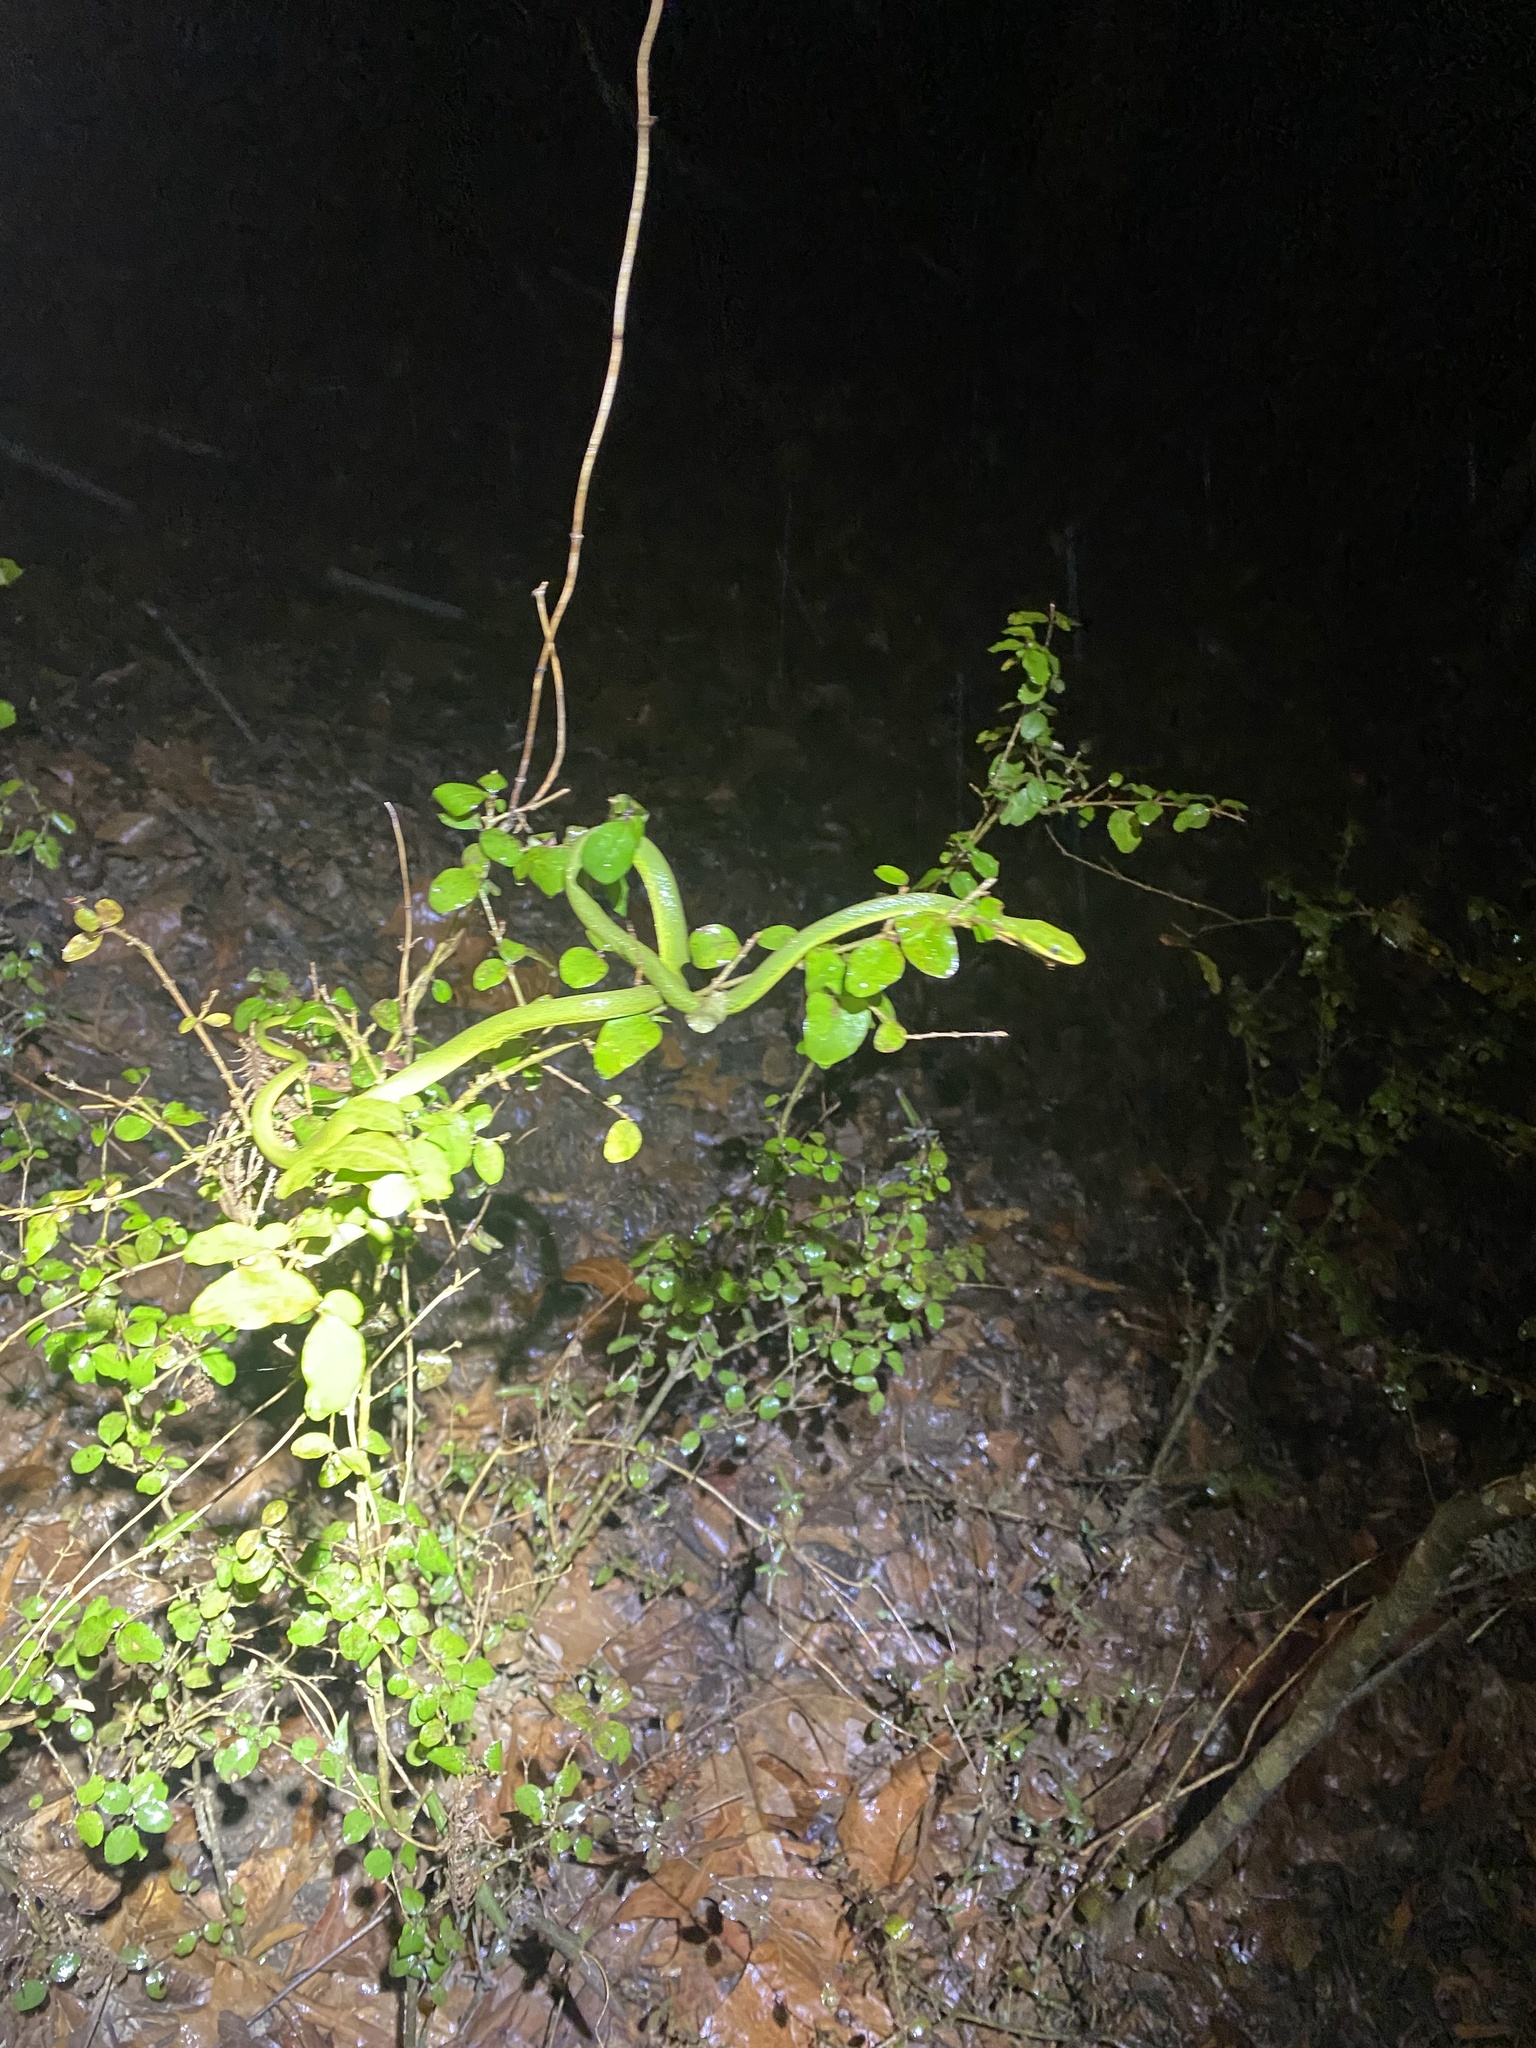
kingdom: Animalia
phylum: Chordata
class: Squamata
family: Colubridae
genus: Opheodrys
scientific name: Opheodrys aestivus
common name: Rough greensnake
